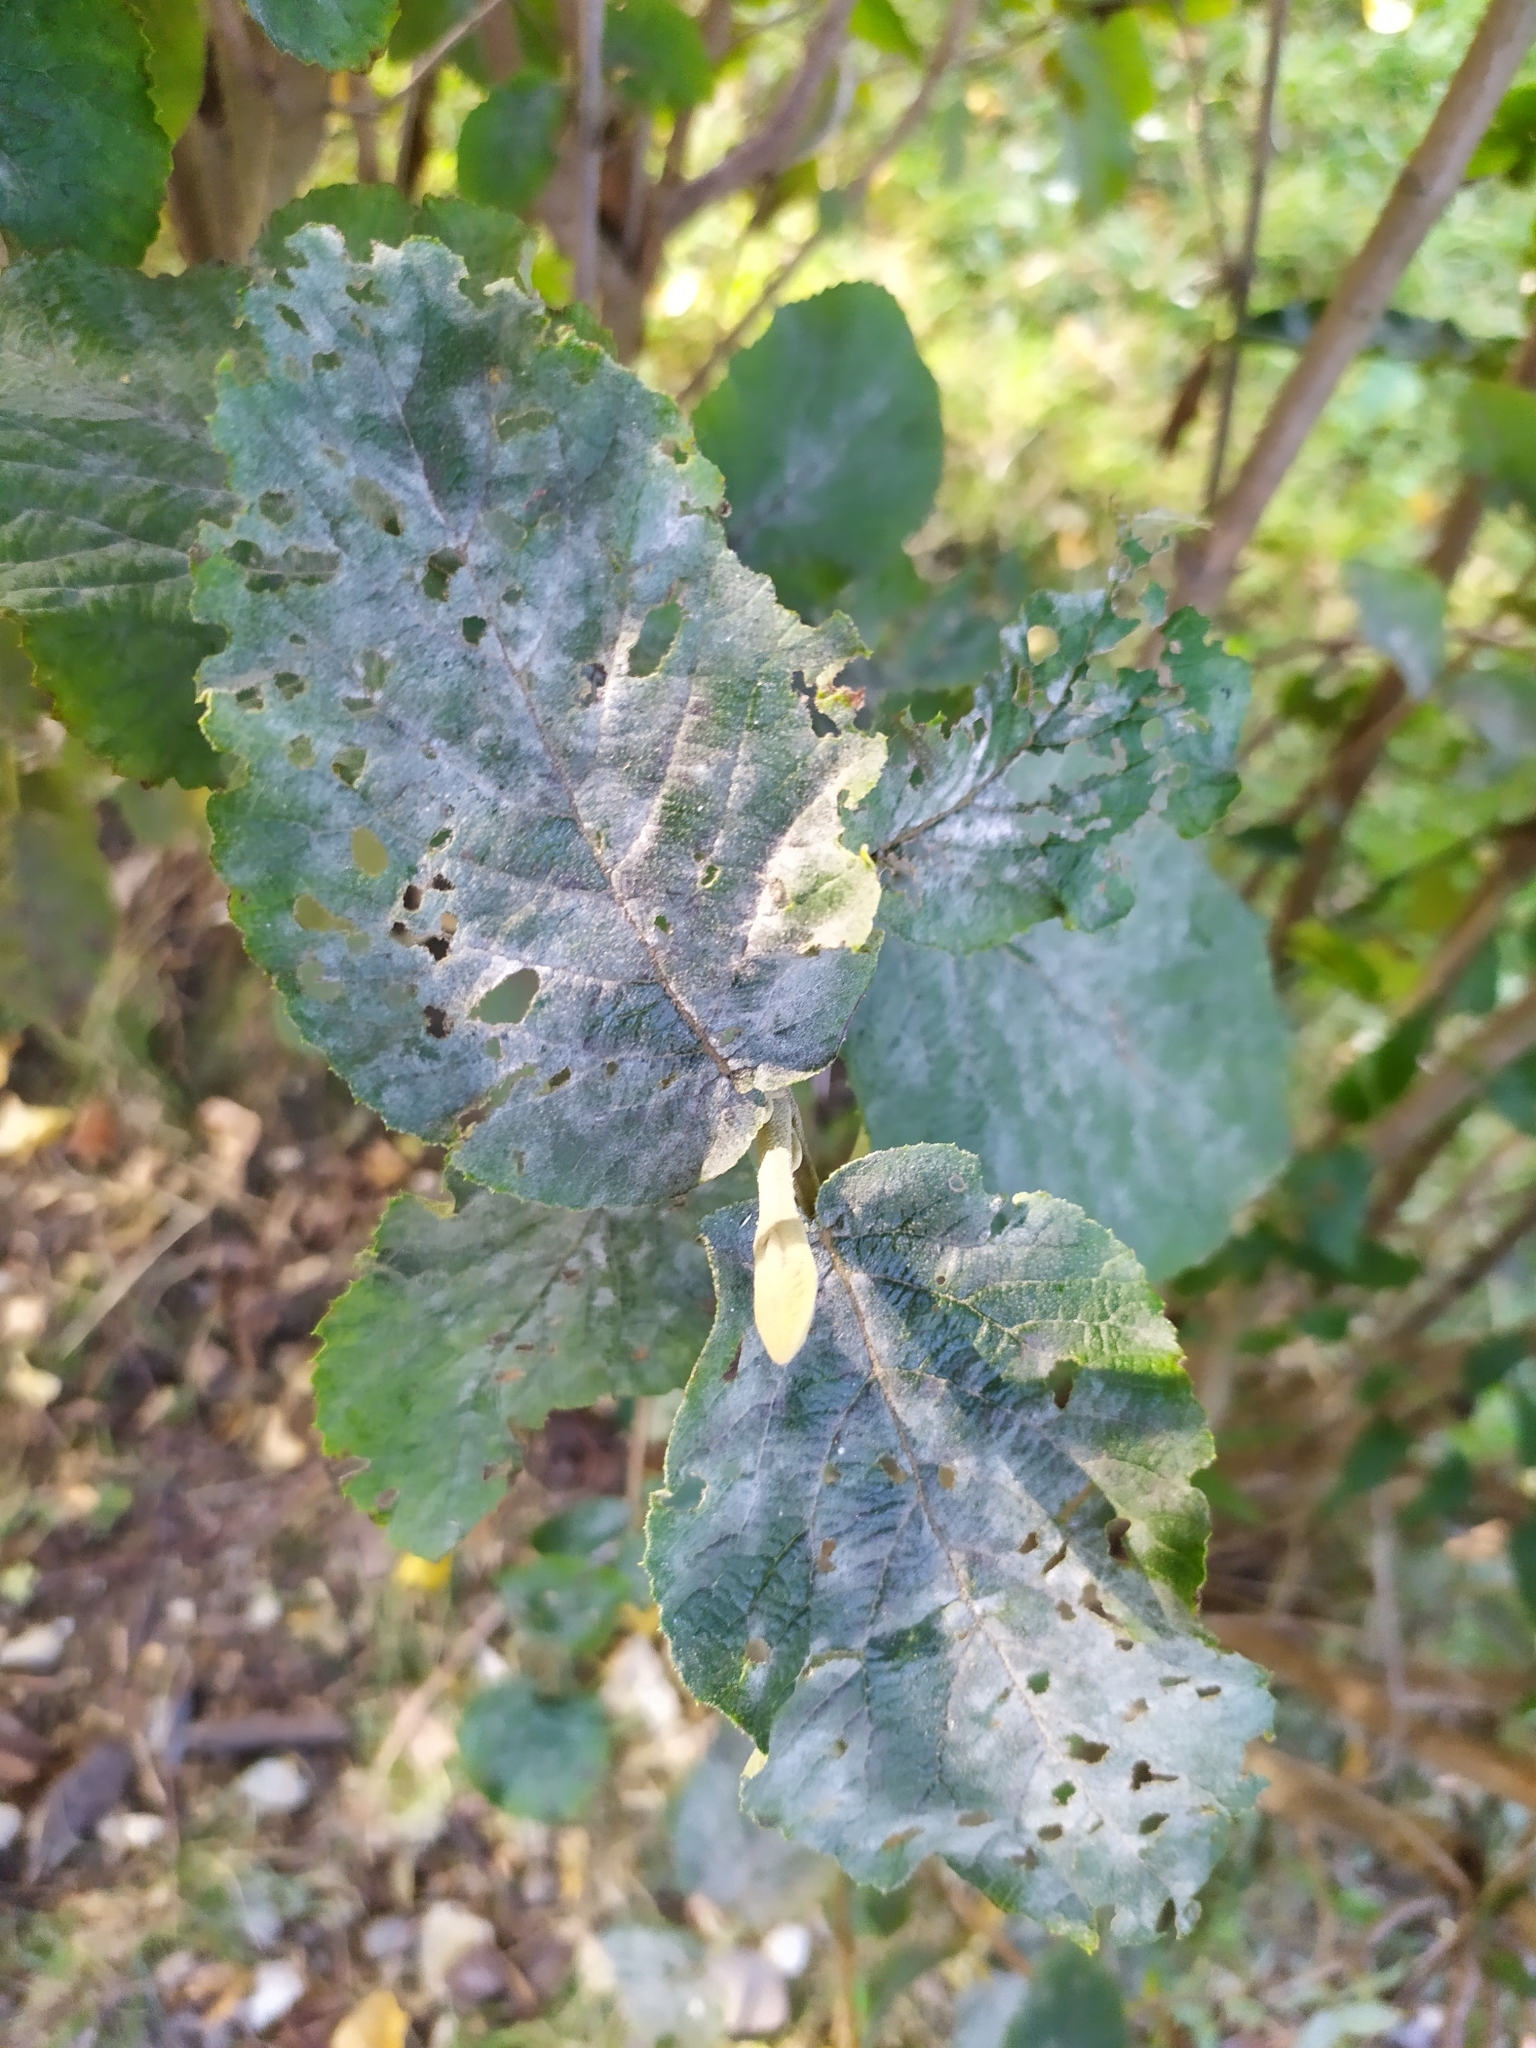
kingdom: Fungi
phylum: Ascomycota
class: Leotiomycetes
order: Helotiales
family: Erysiphaceae
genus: Erysiphe
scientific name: Erysiphe viburni
